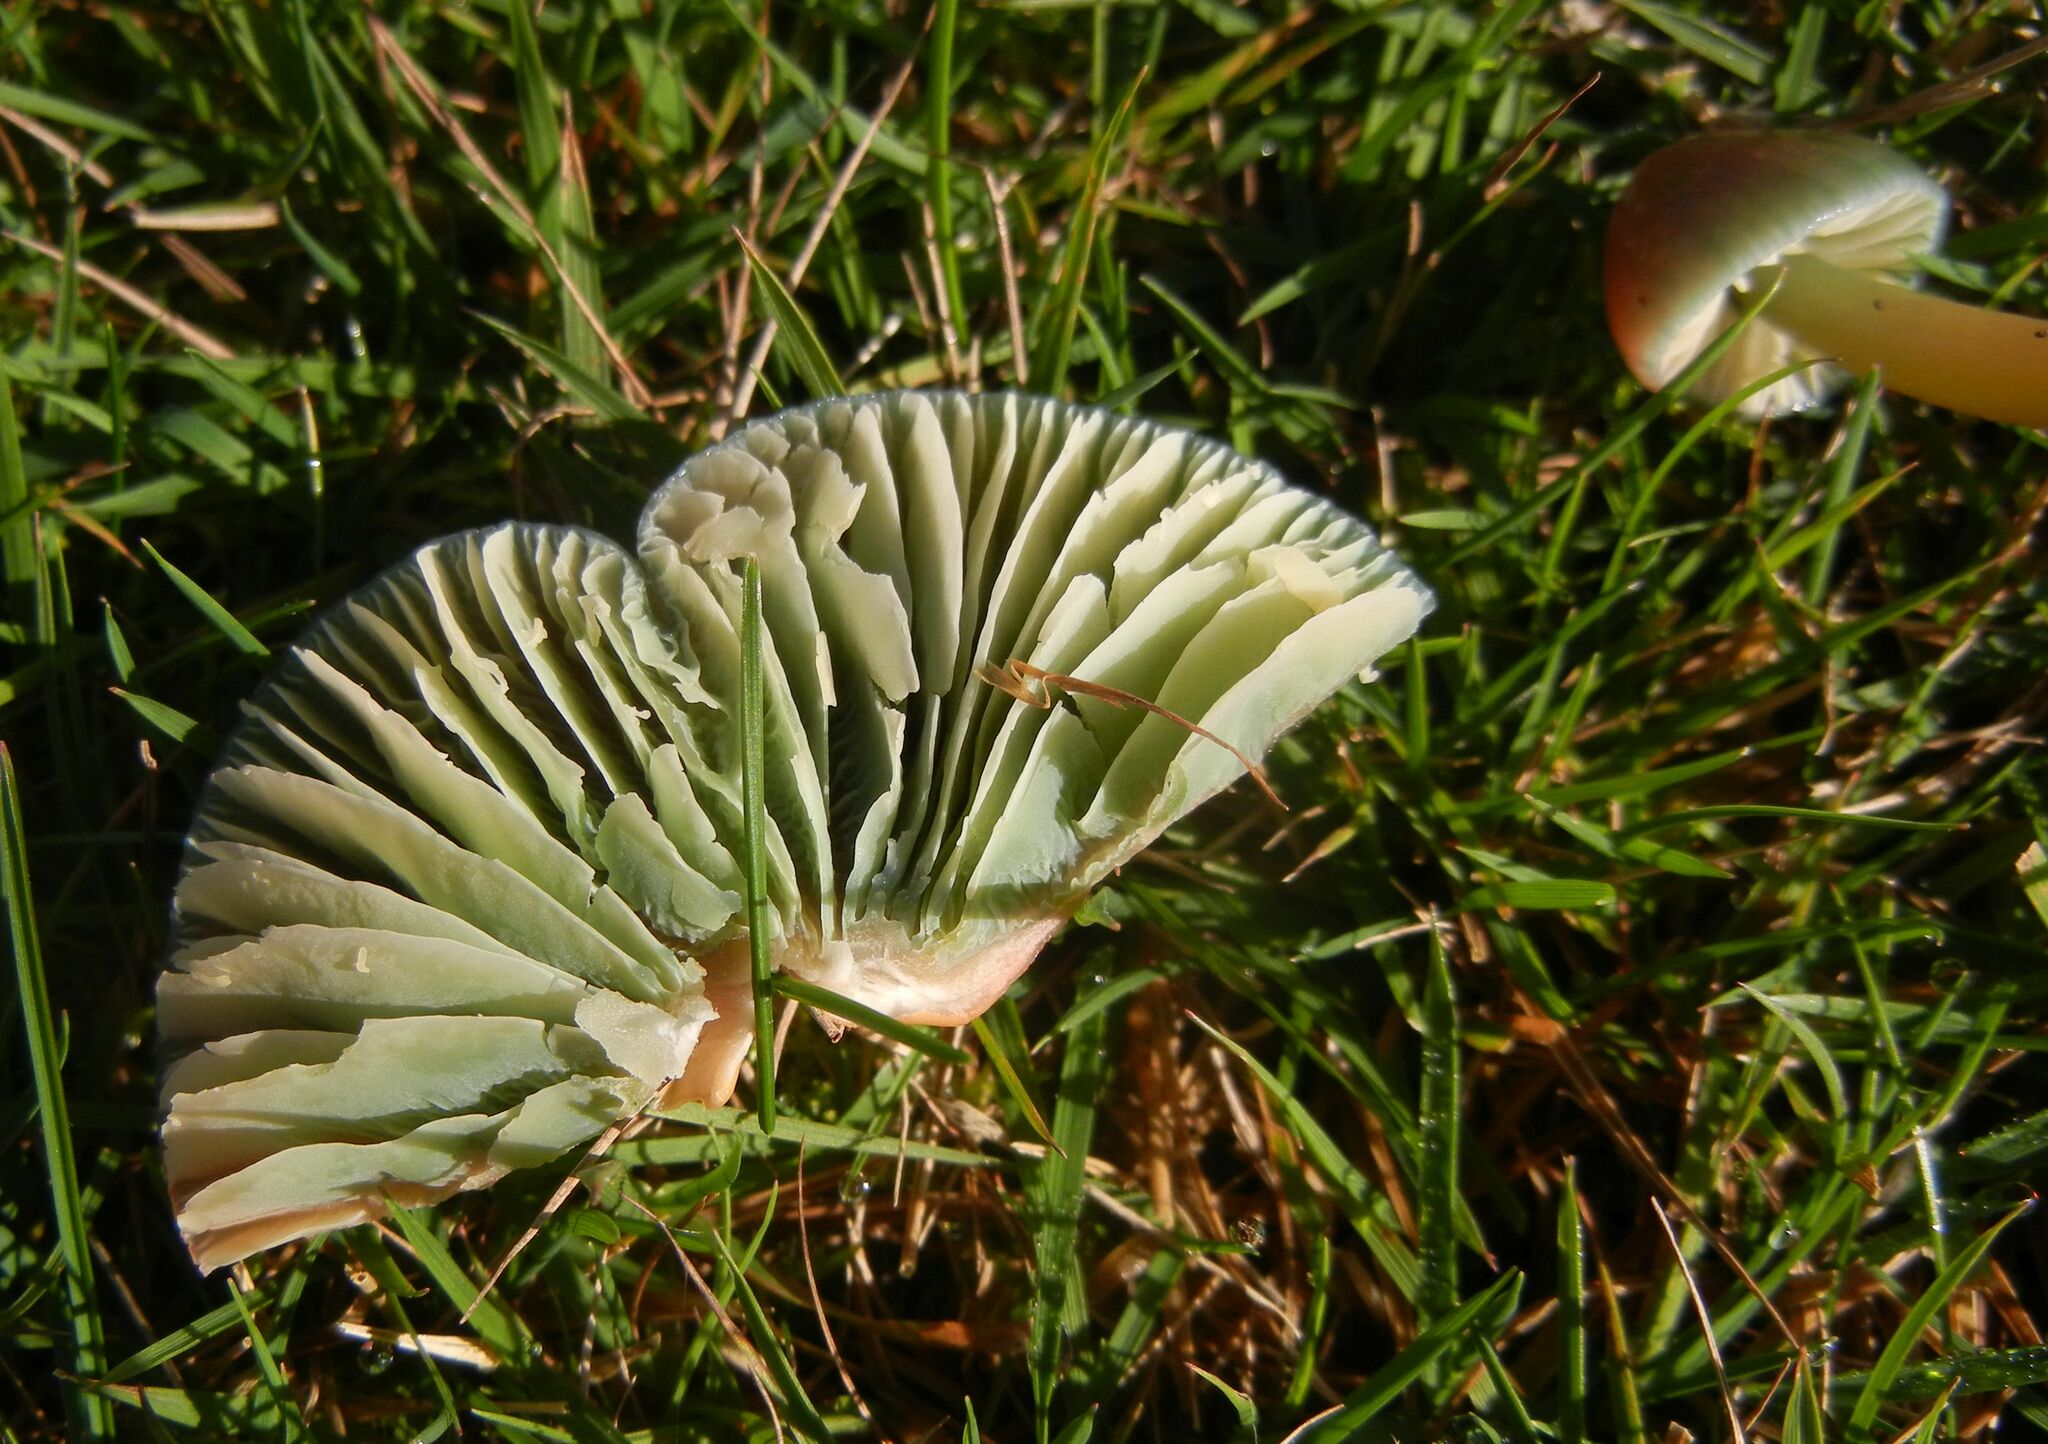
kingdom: Fungi
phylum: Basidiomycota
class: Agaricomycetes
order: Agaricales
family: Hygrophoraceae
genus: Gliophorus
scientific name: Gliophorus psittacinus
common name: Parrot wax-cap
